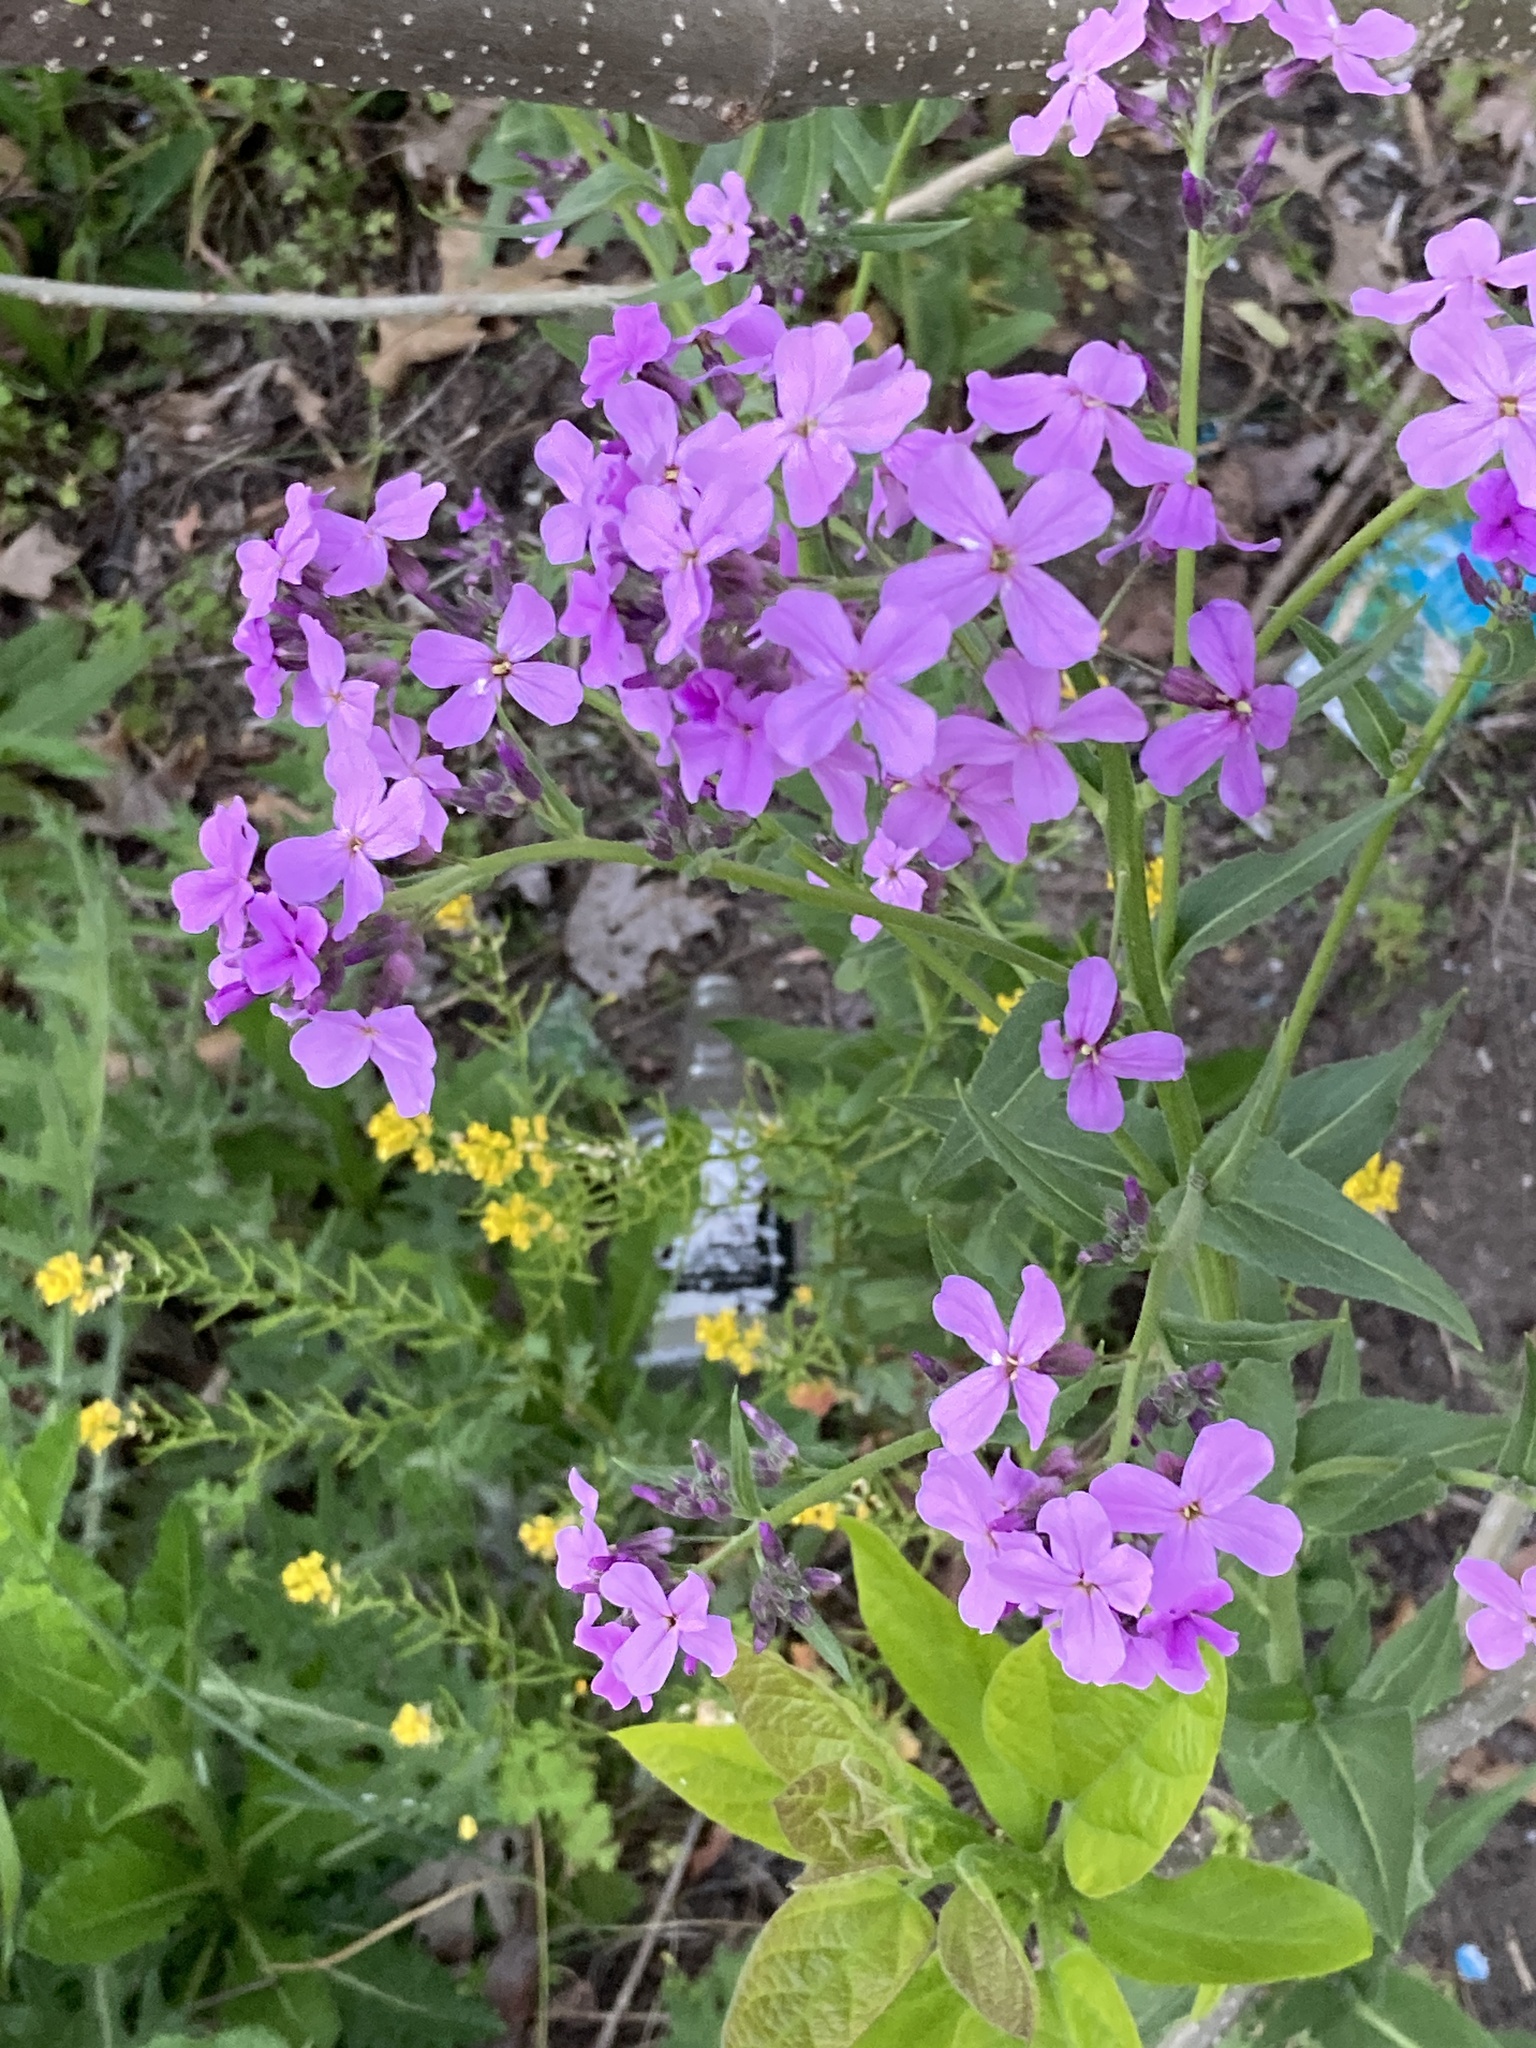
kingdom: Plantae
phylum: Tracheophyta
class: Magnoliopsida
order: Brassicales
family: Brassicaceae
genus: Hesperis
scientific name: Hesperis matronalis
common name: Dame's-violet
